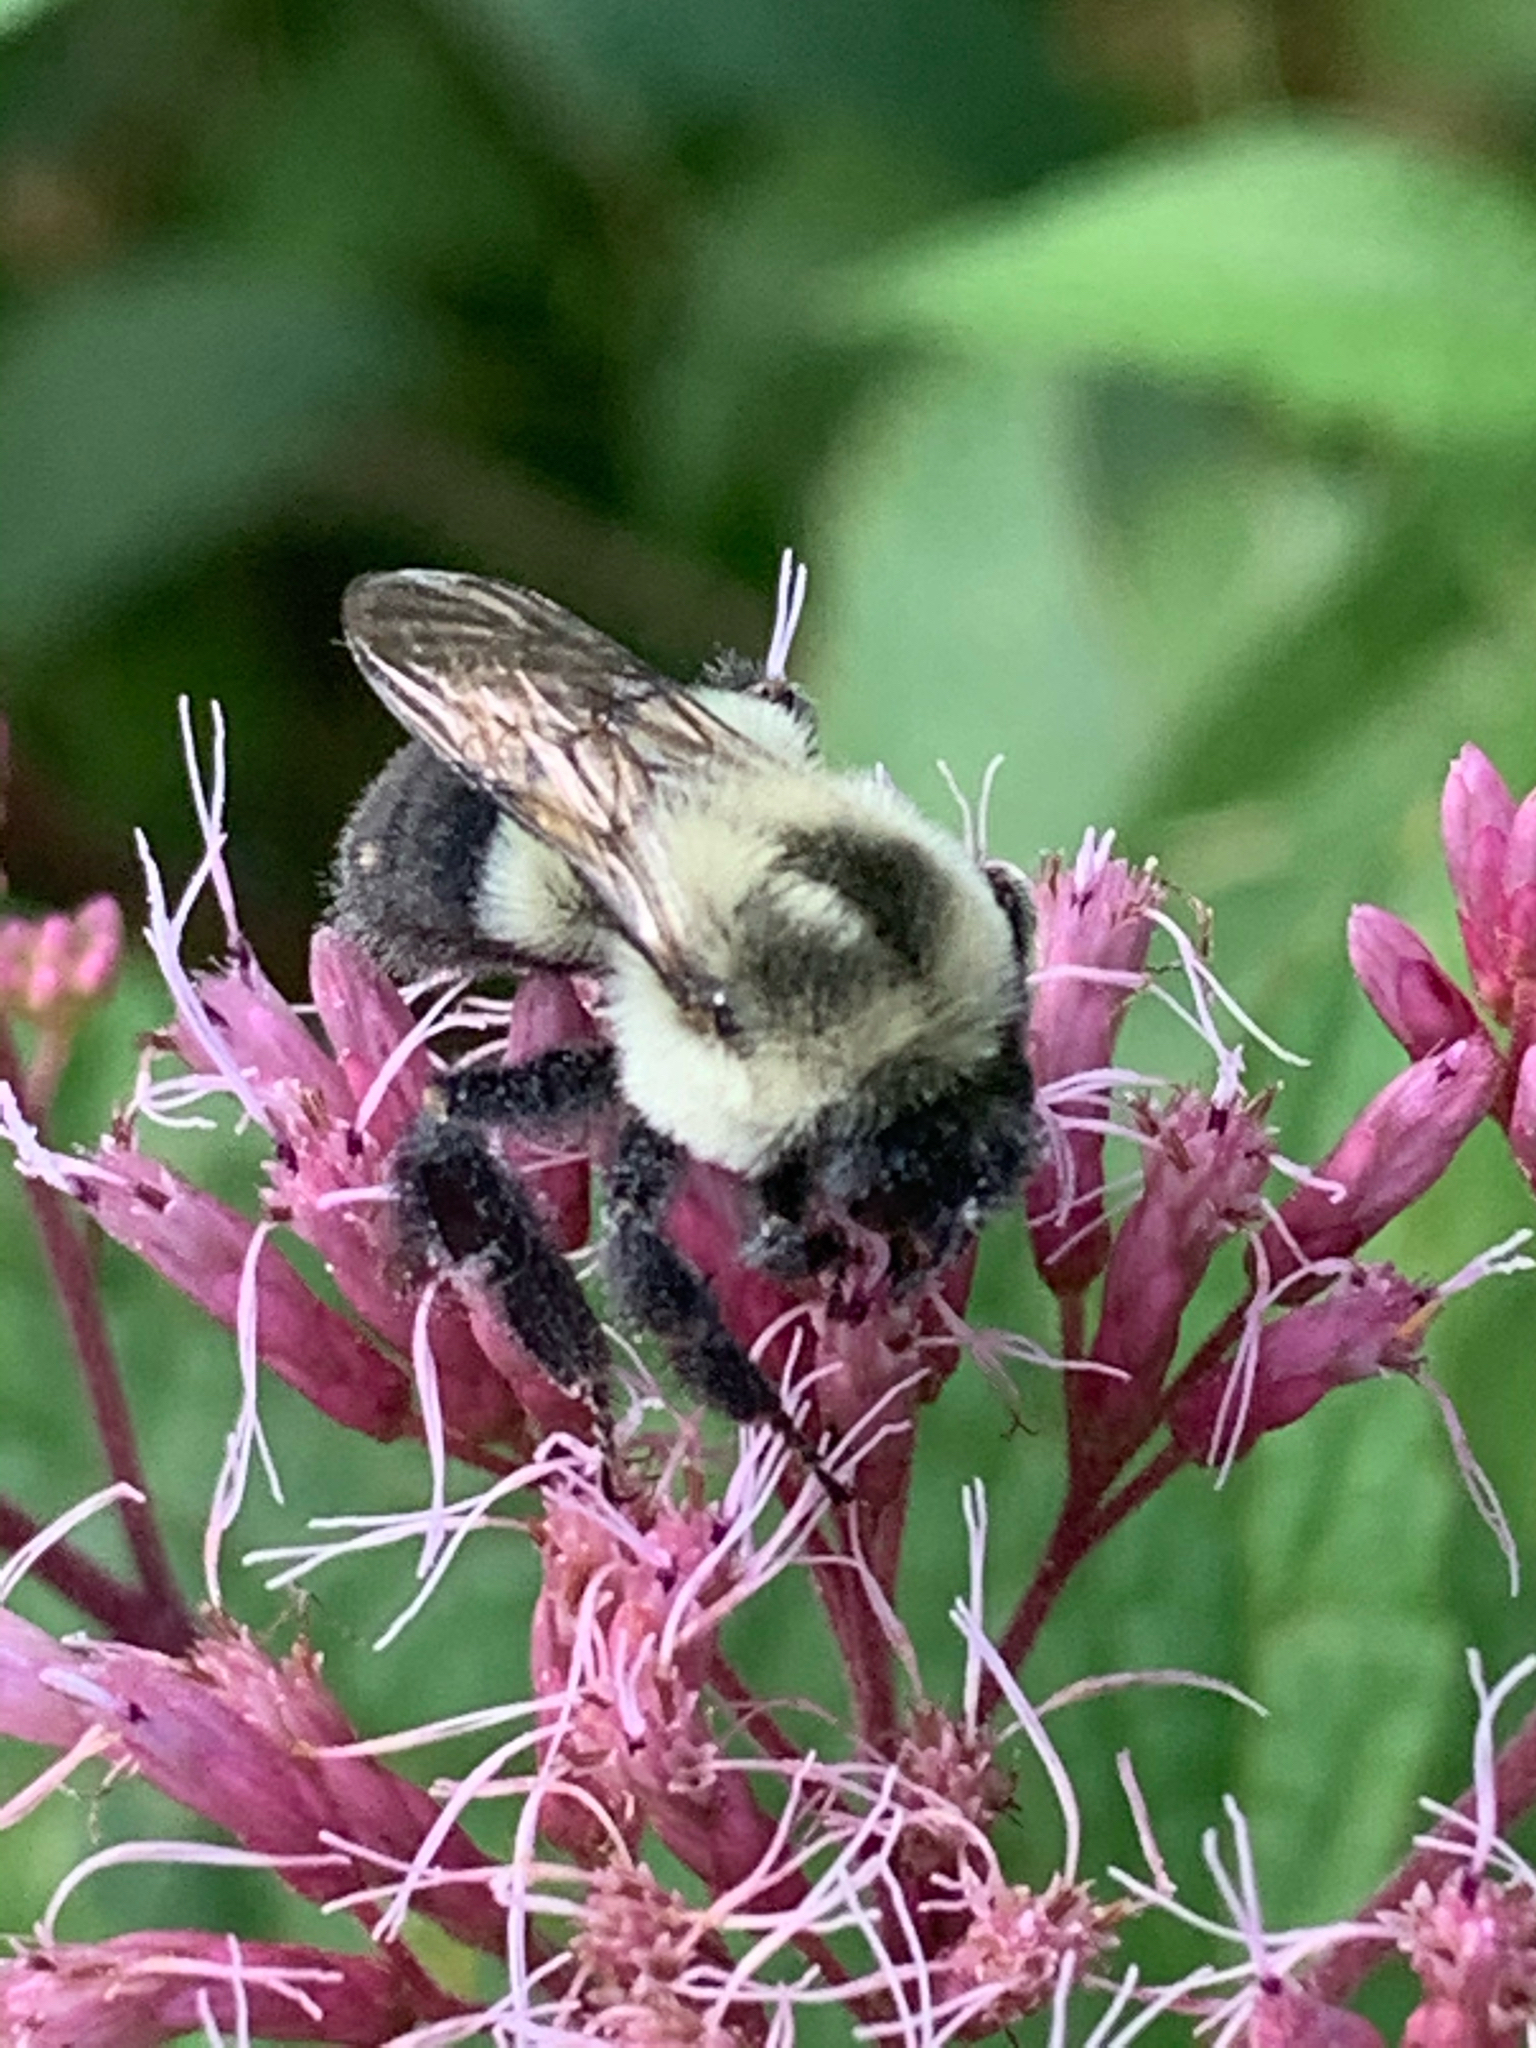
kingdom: Animalia
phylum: Arthropoda
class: Insecta
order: Hymenoptera
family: Apidae
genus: Bombus
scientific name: Bombus impatiens
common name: Common eastern bumble bee
